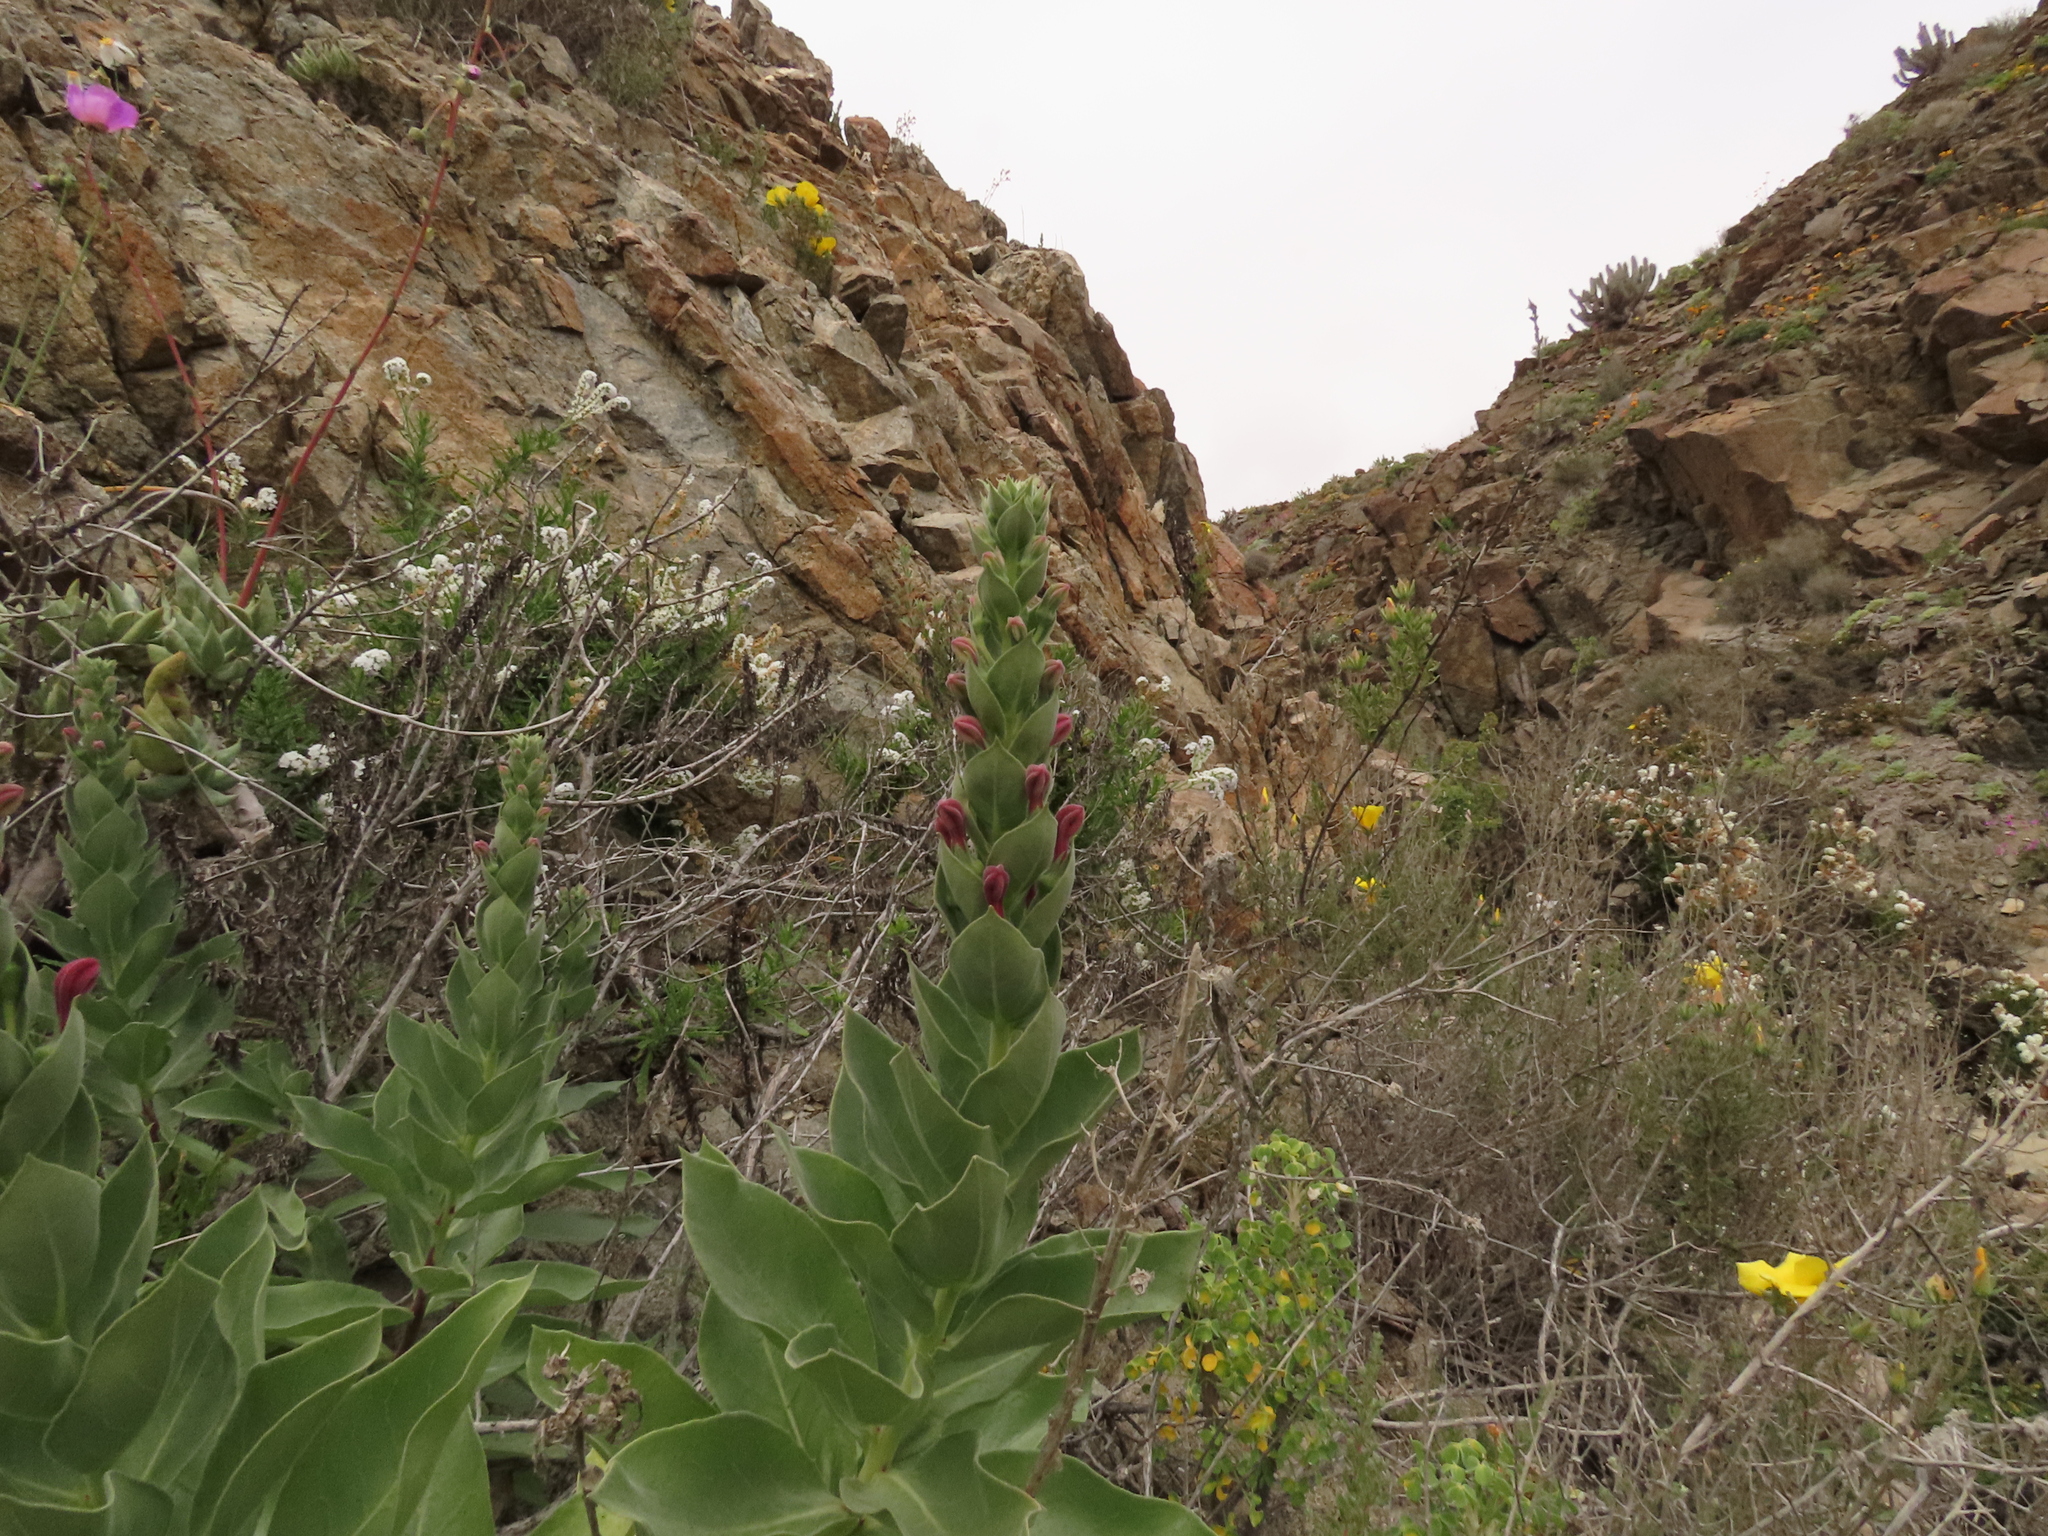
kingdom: Plantae
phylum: Tracheophyta
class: Magnoliopsida
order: Asterales
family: Campanulaceae
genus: Lobelia
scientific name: Lobelia polyphylla
